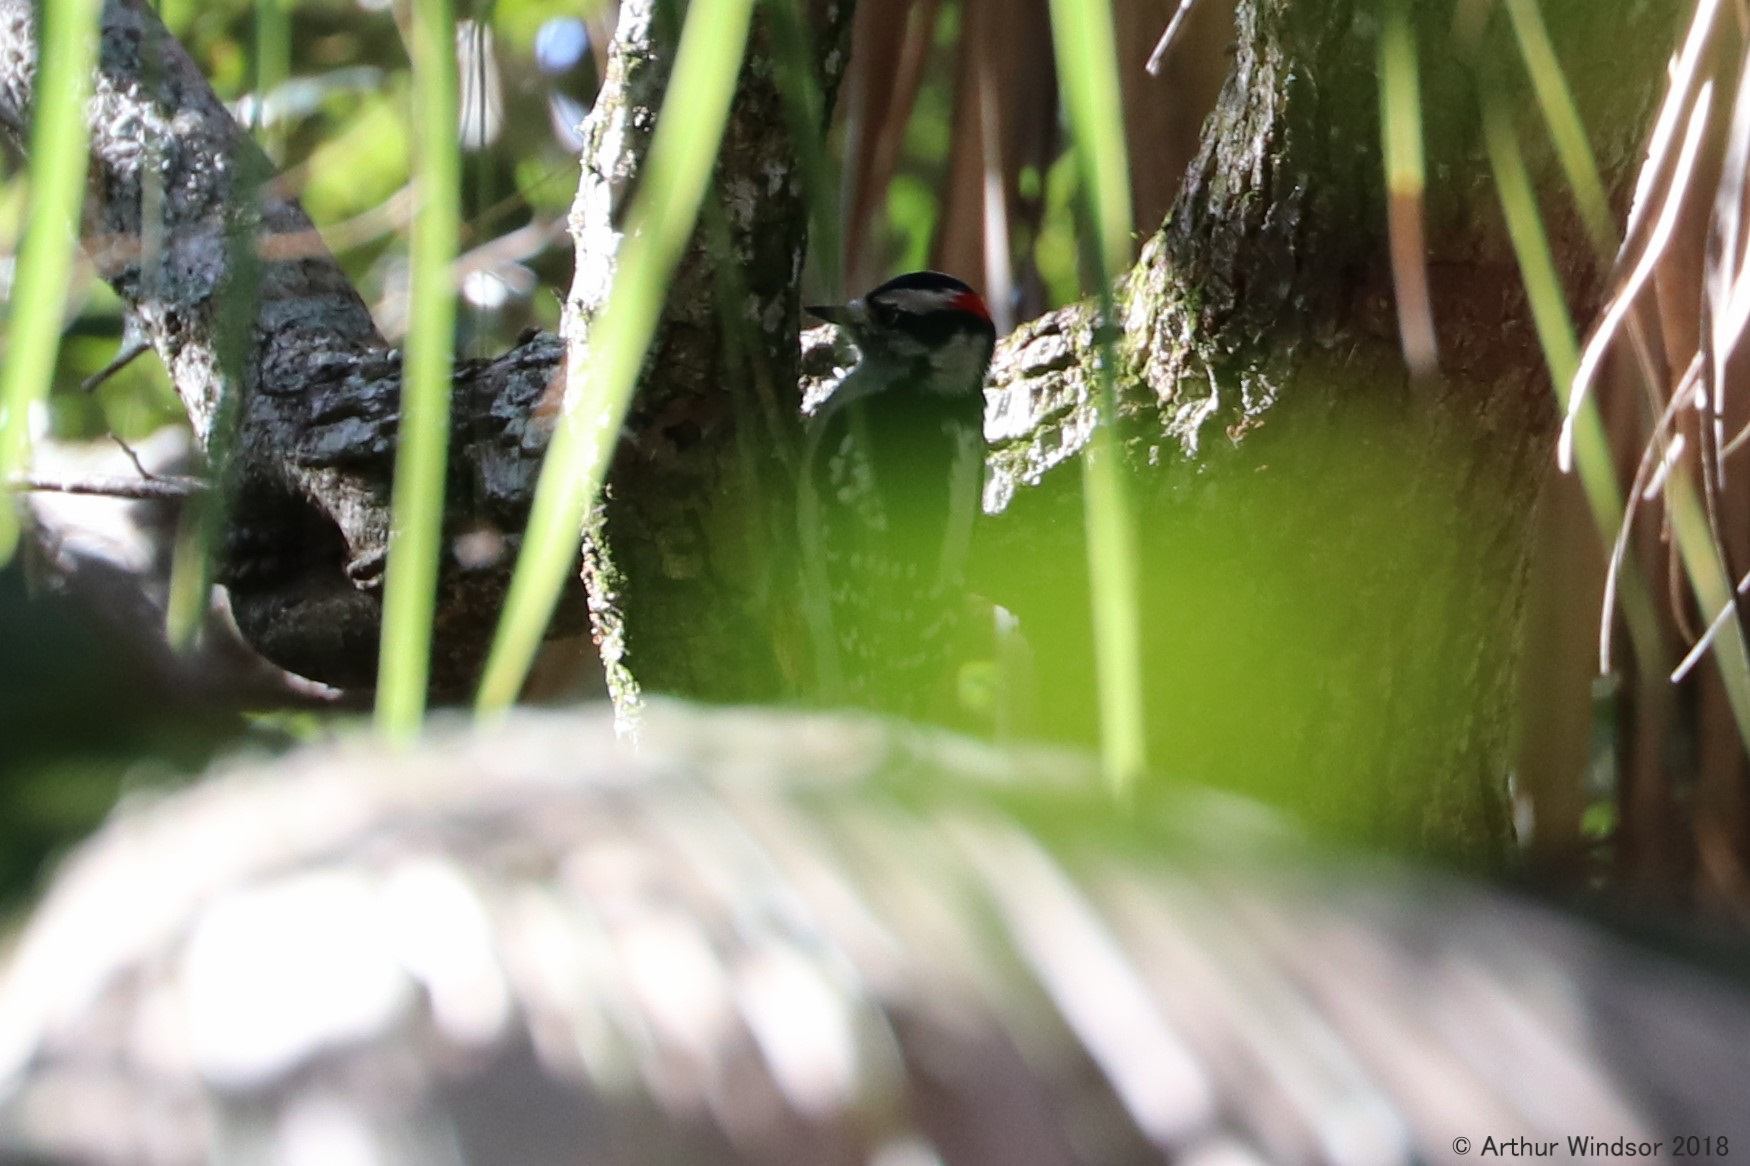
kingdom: Animalia
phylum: Chordata
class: Aves
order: Piciformes
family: Picidae
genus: Dryobates
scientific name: Dryobates pubescens
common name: Downy woodpecker
